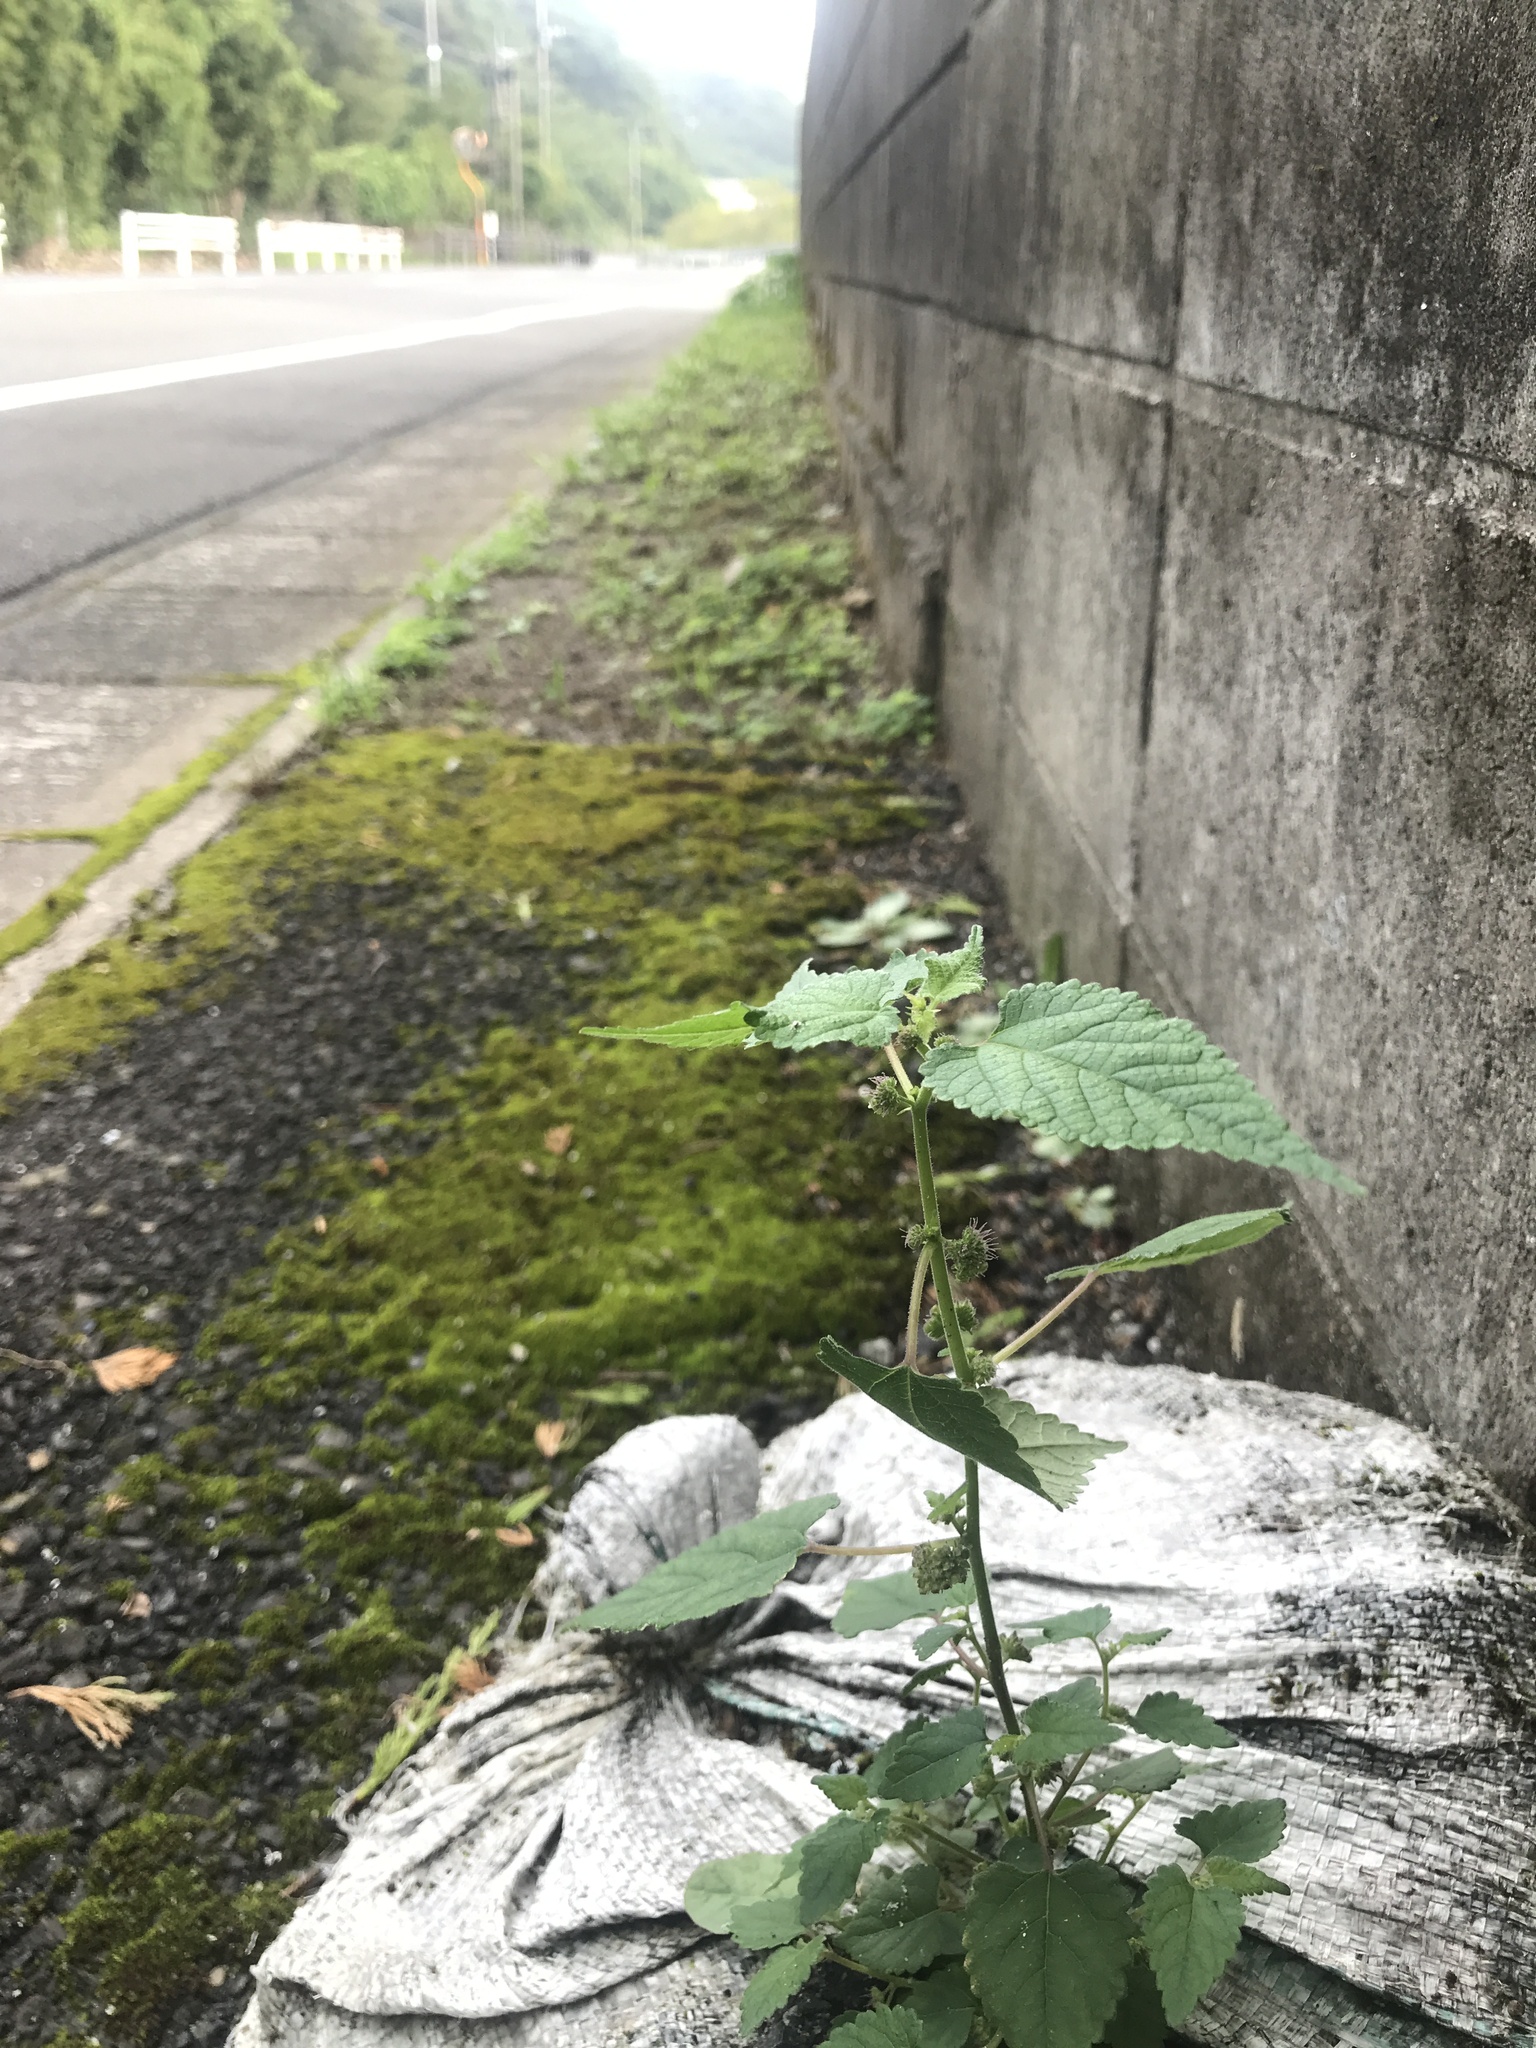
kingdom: Plantae
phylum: Tracheophyta
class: Magnoliopsida
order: Rosales
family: Moraceae
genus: Fatoua
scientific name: Fatoua villosa
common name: Hairy crabweed
